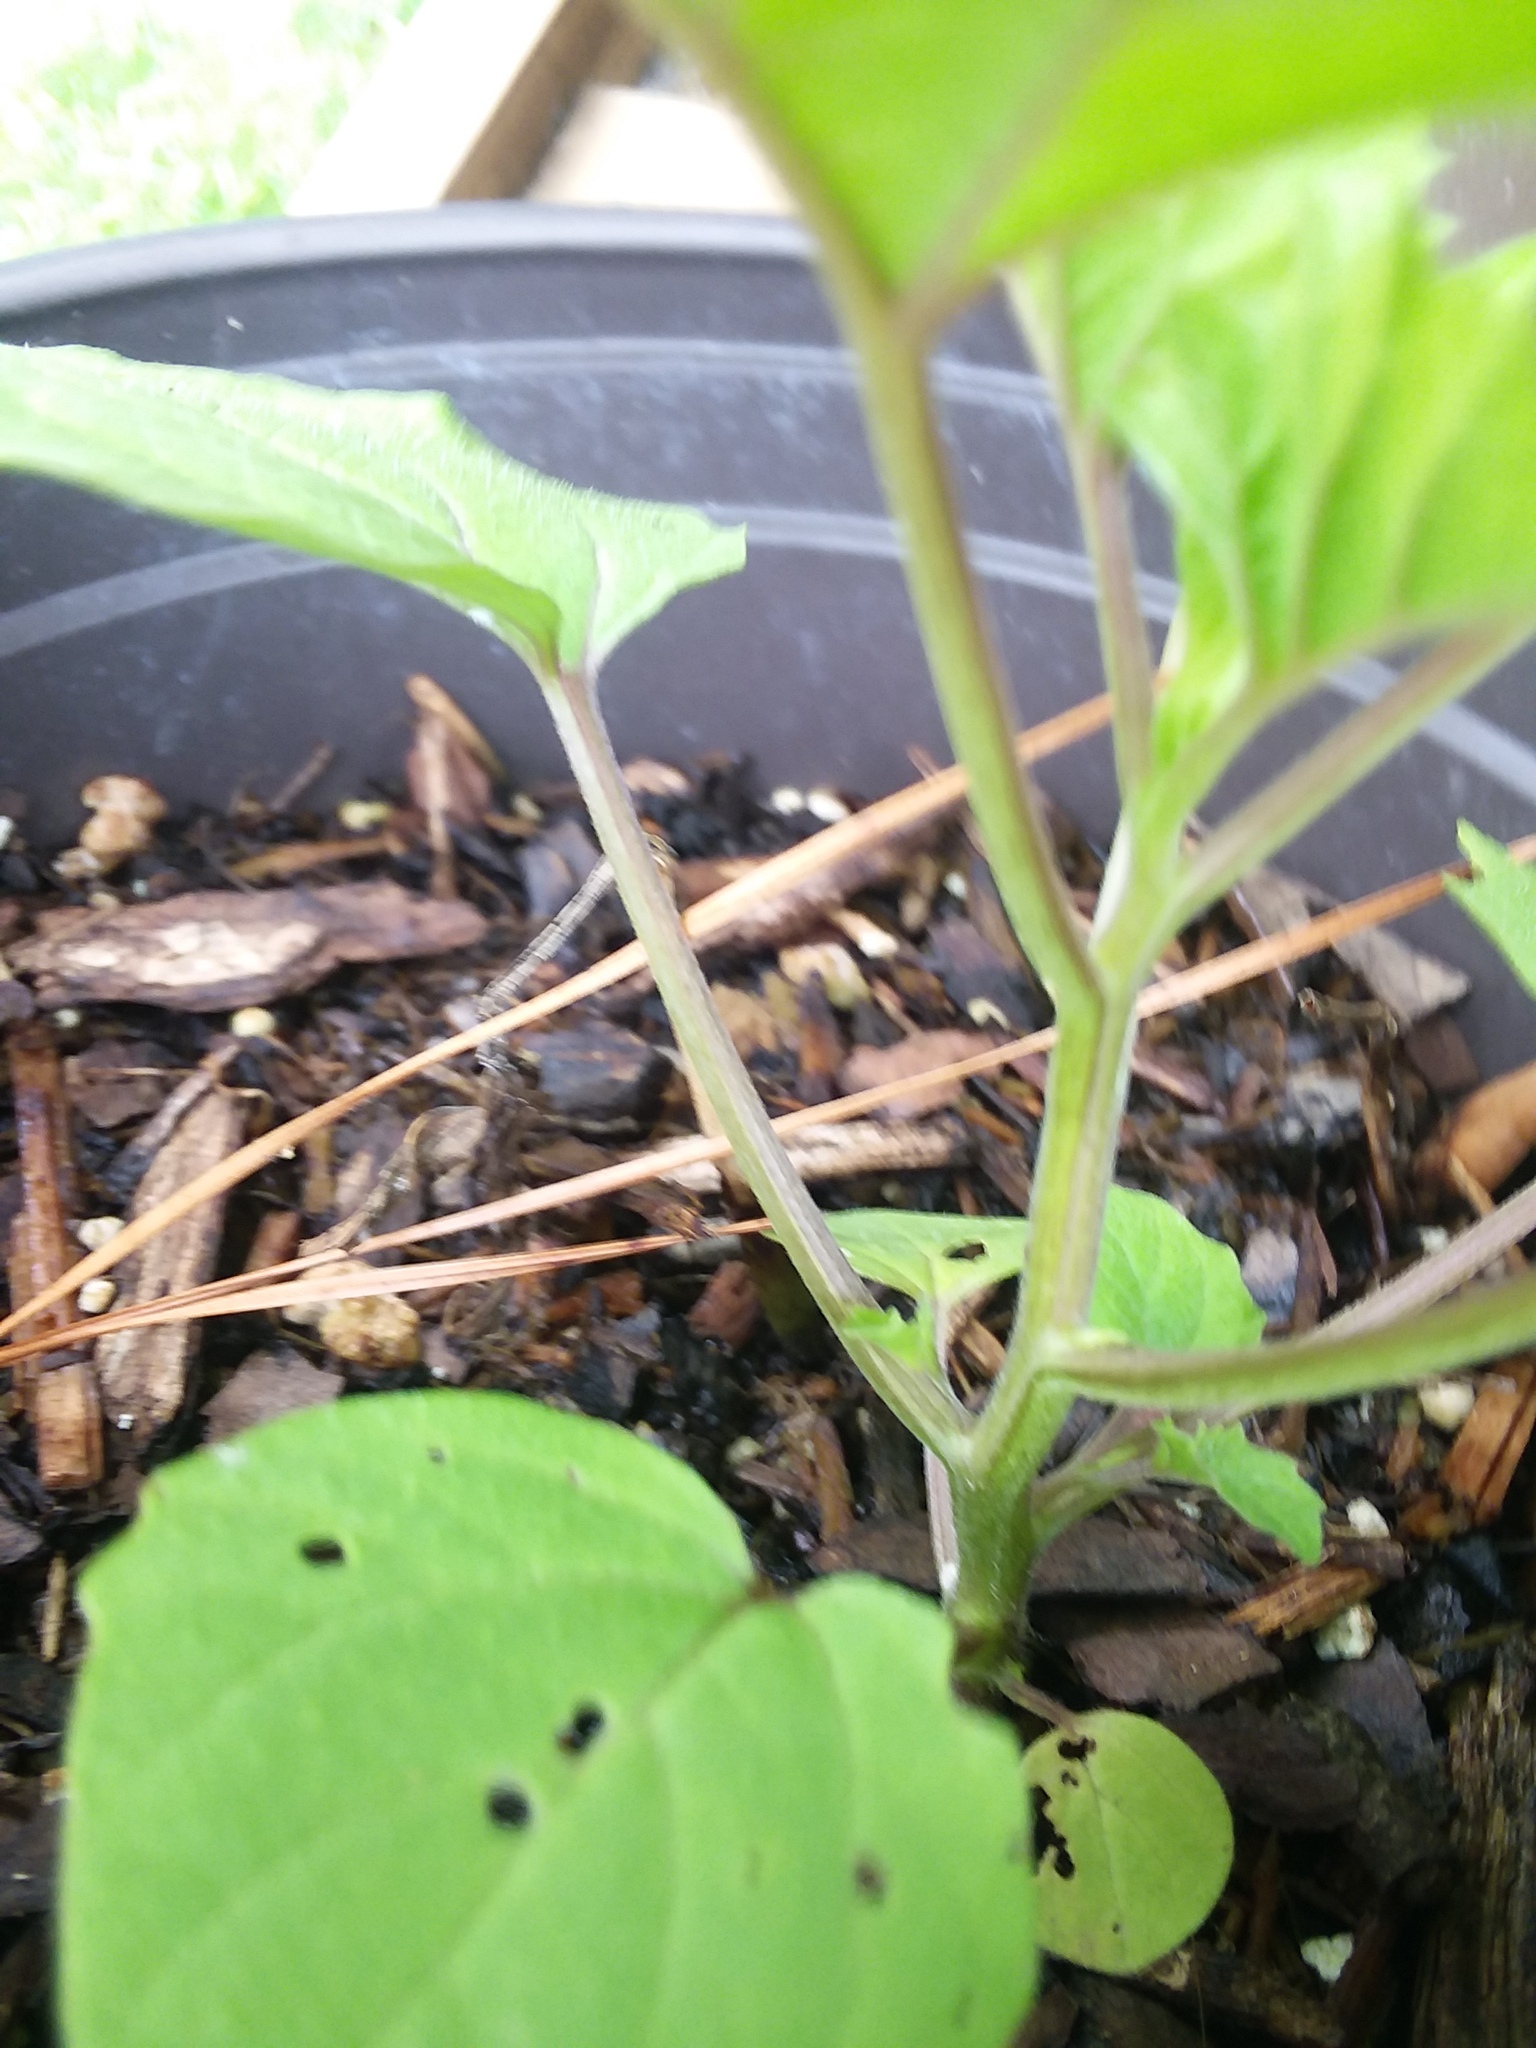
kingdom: Plantae
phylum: Tracheophyta
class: Magnoliopsida
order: Solanales
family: Solanaceae
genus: Physalis
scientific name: Physalis cordata
